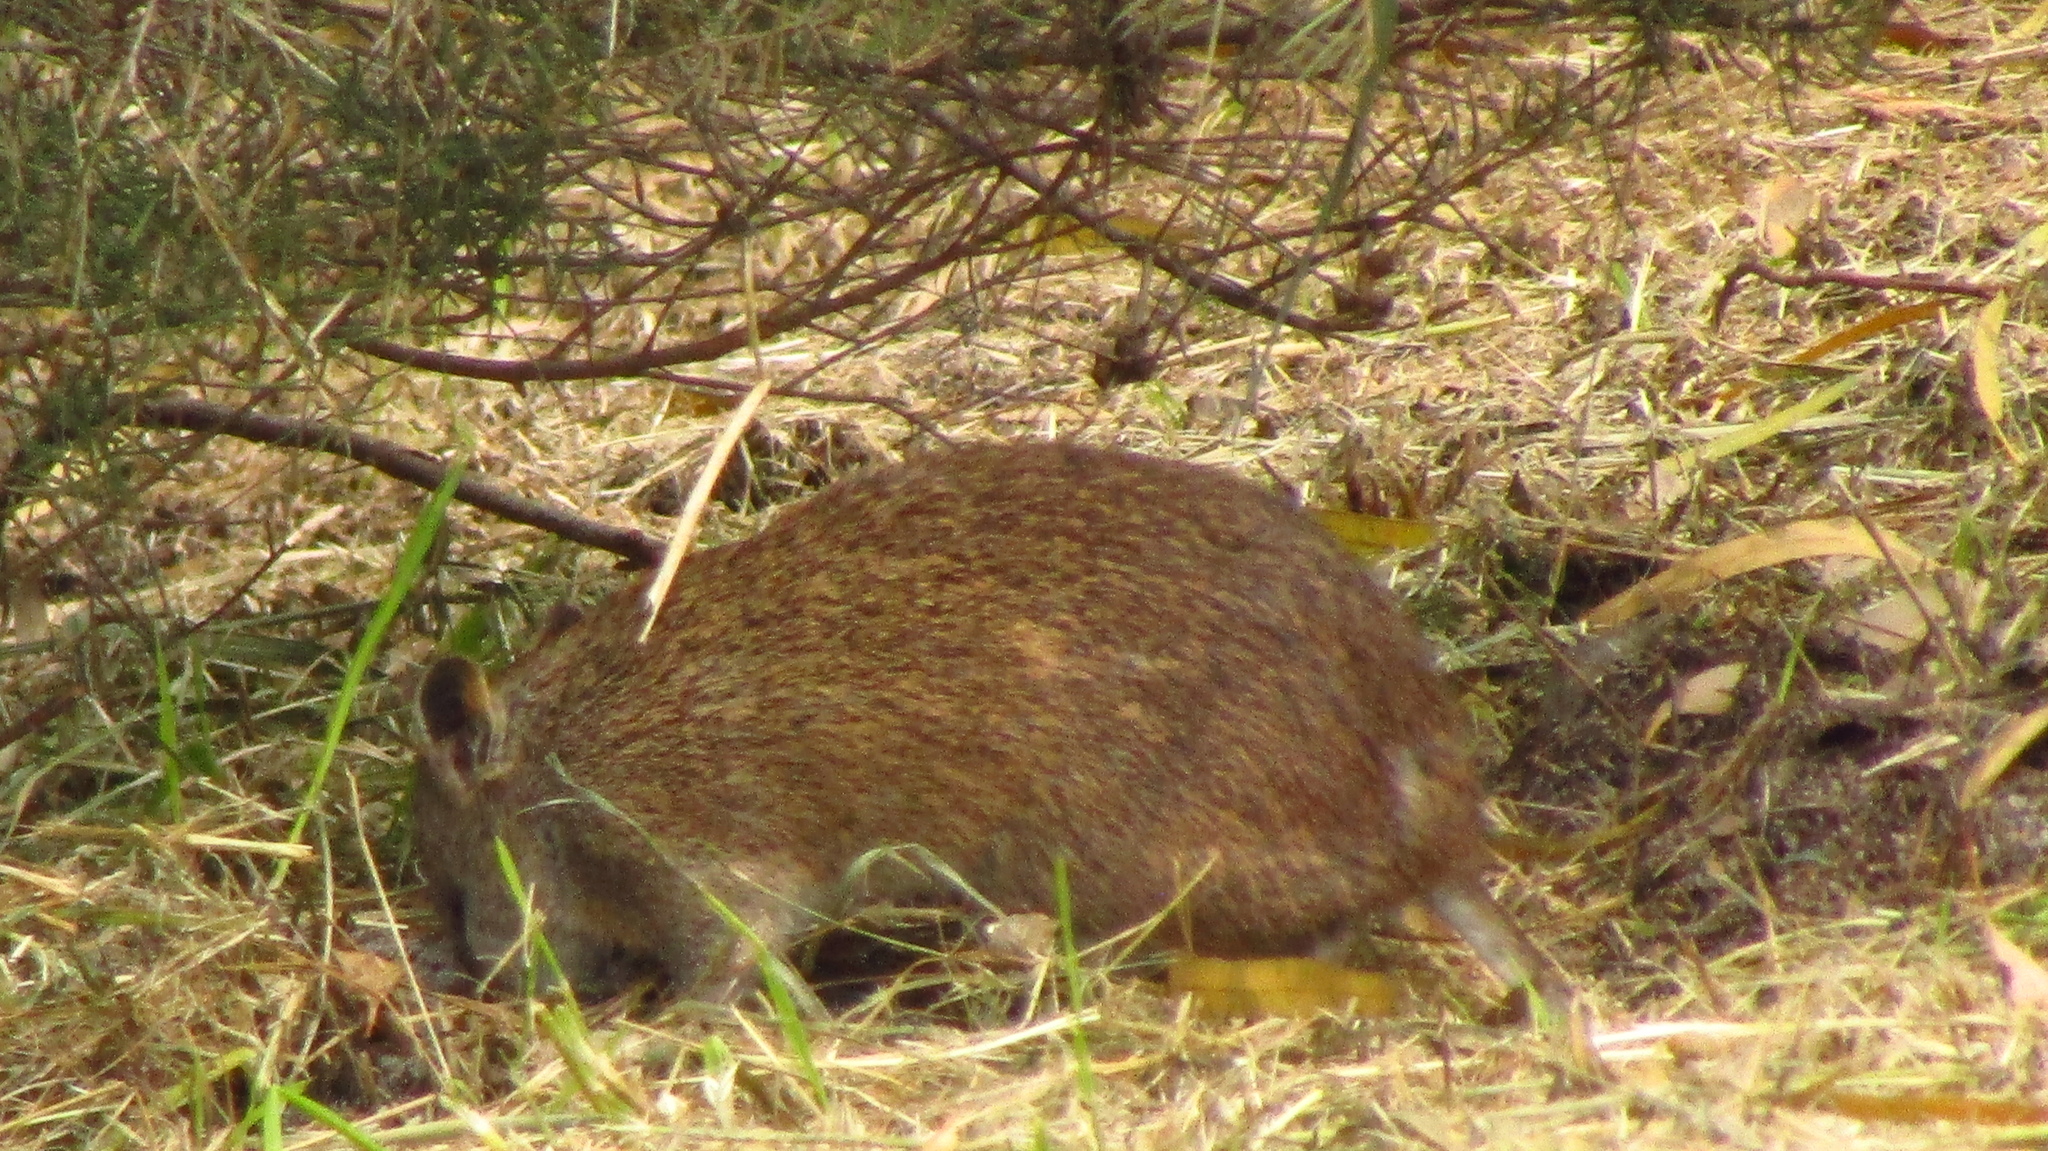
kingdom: Animalia
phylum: Chordata
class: Mammalia
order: Peramelemorphia
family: Peramelidae
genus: Isoodon
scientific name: Isoodon fusciventer
